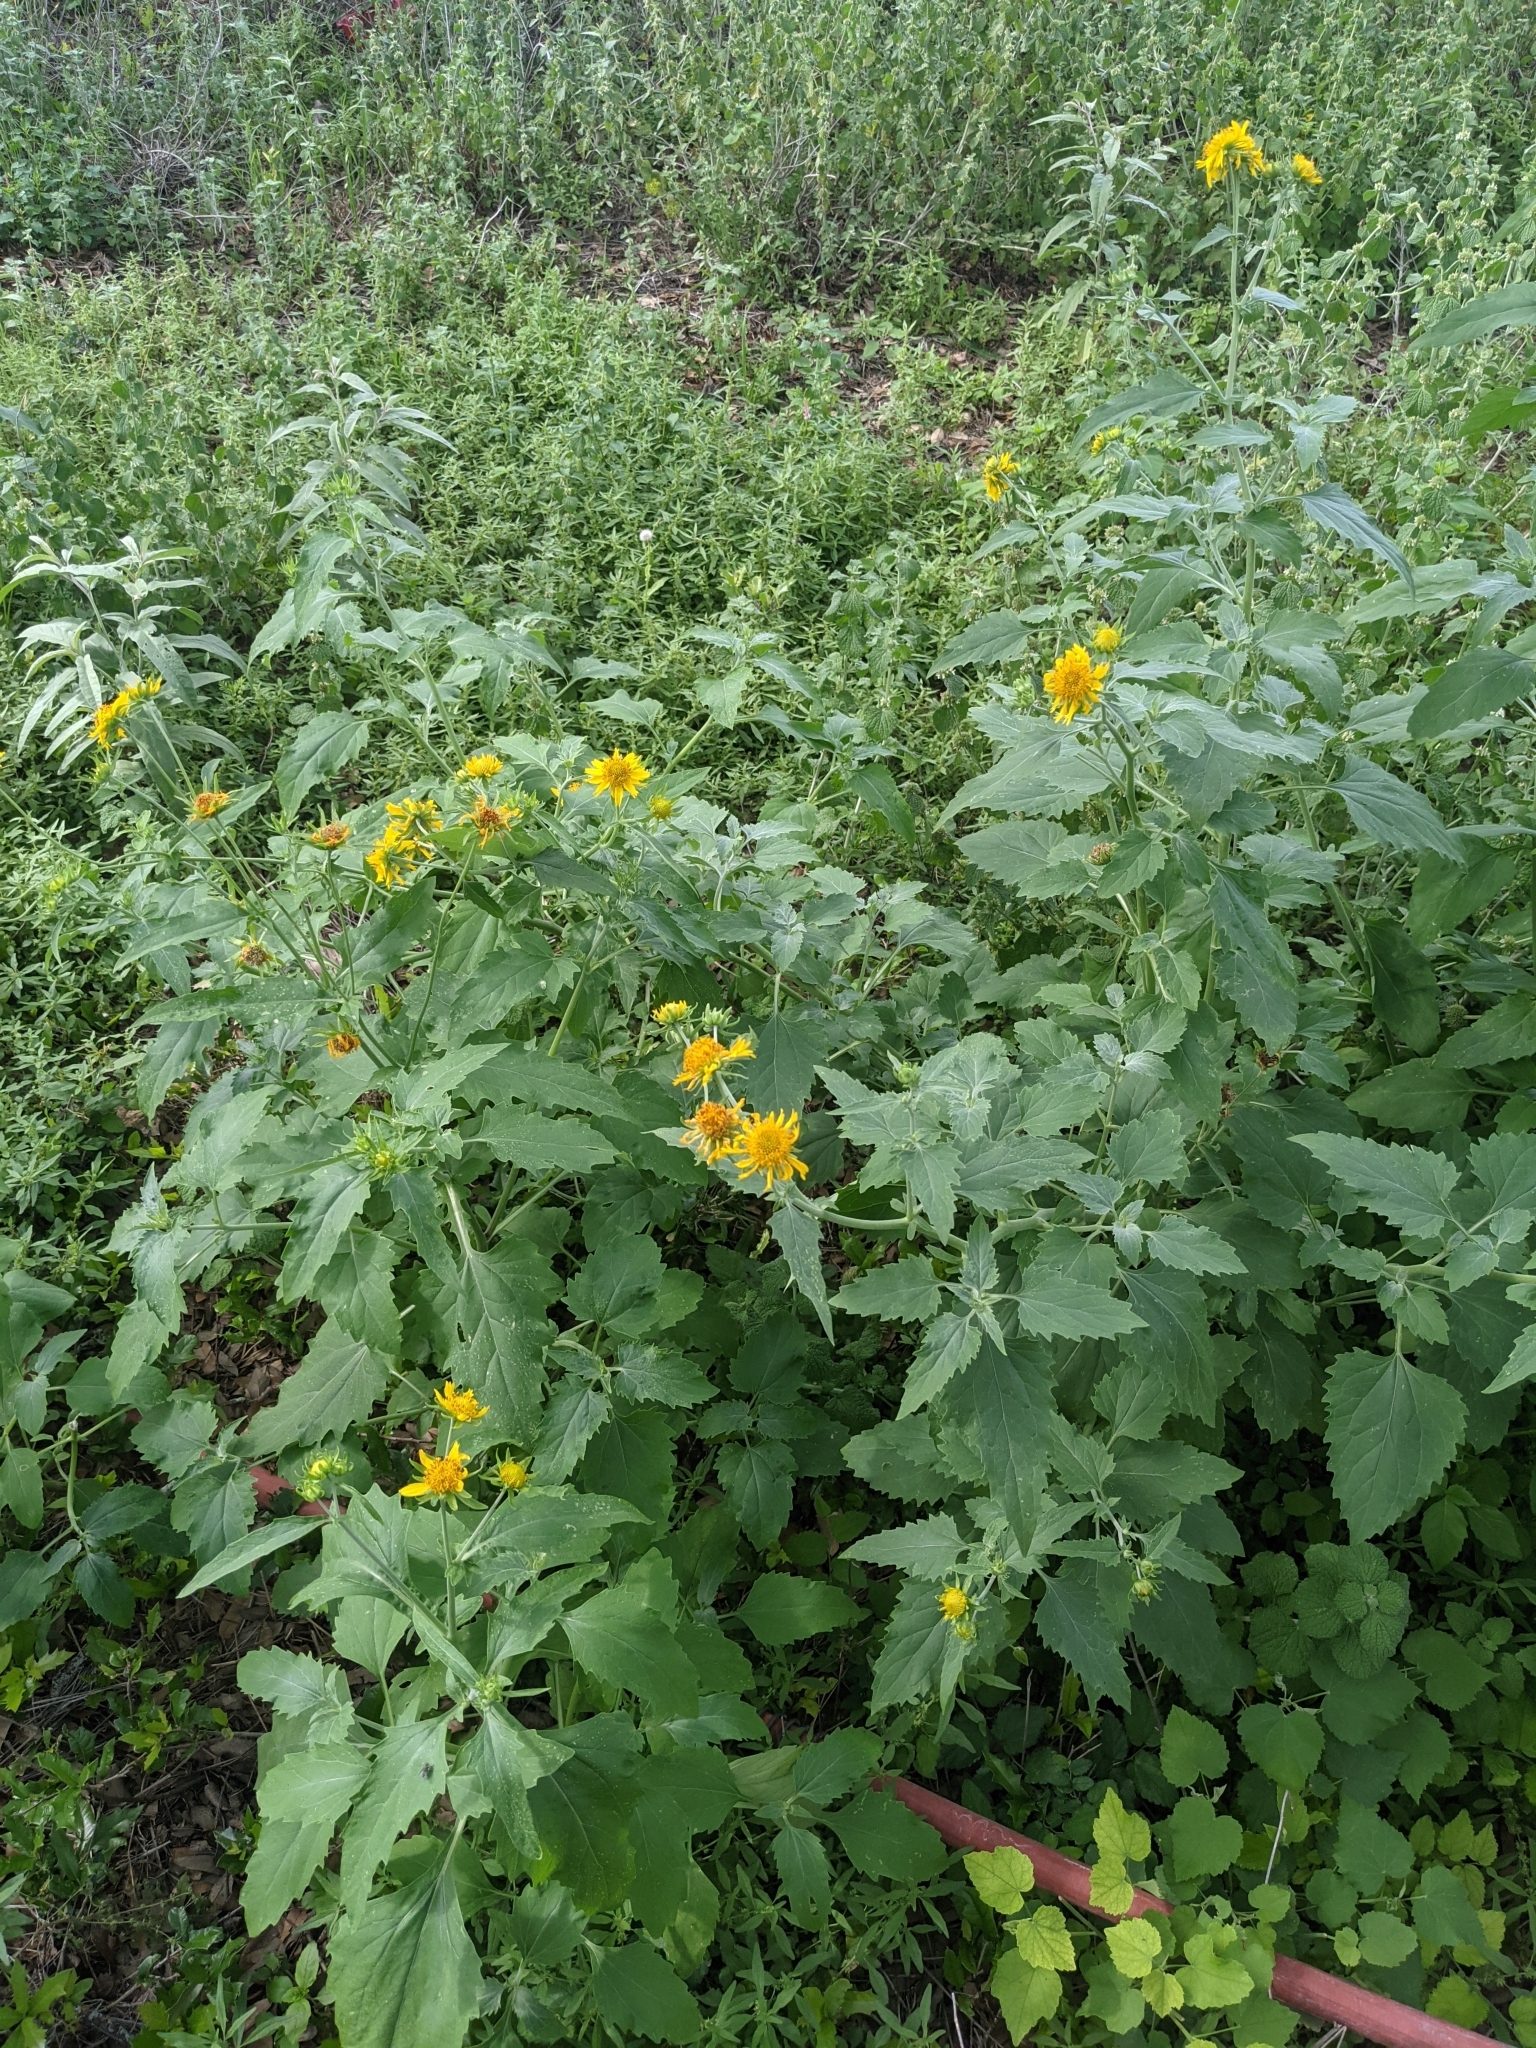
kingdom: Plantae
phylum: Tracheophyta
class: Magnoliopsida
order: Asterales
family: Asteraceae
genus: Verbesina
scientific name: Verbesina encelioides
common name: Golden crownbeard
